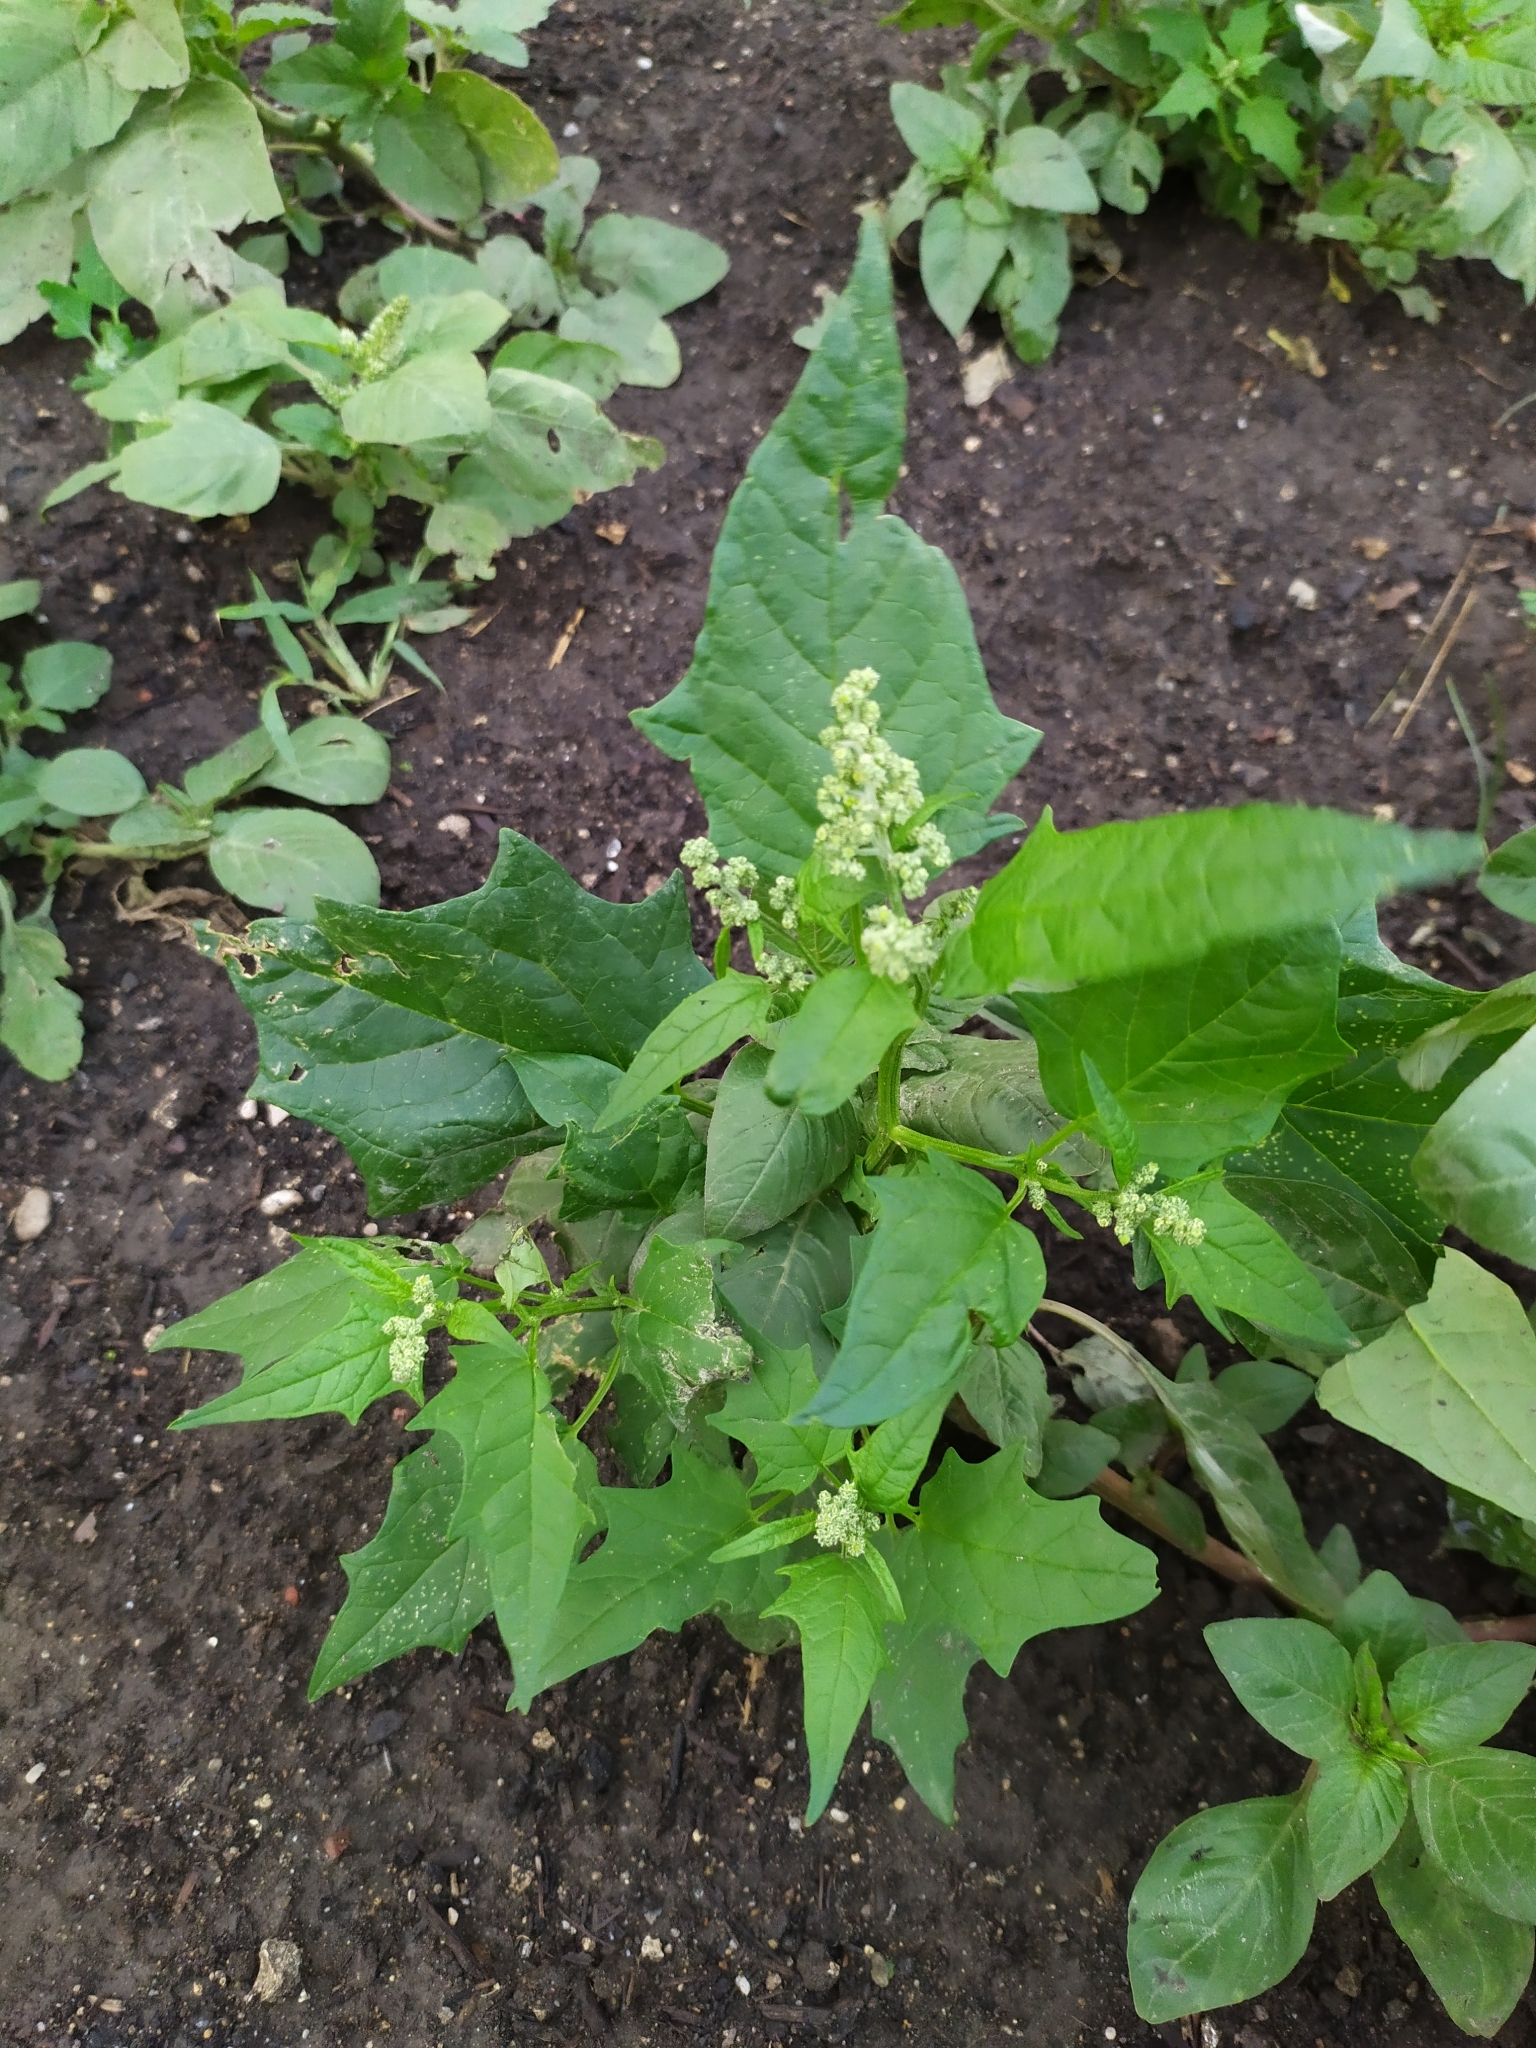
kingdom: Plantae
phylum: Tracheophyta
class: Magnoliopsida
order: Caryophyllales
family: Amaranthaceae
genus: Chenopodiastrum
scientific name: Chenopodiastrum hybridum
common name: Mapleleaf goosefoot
